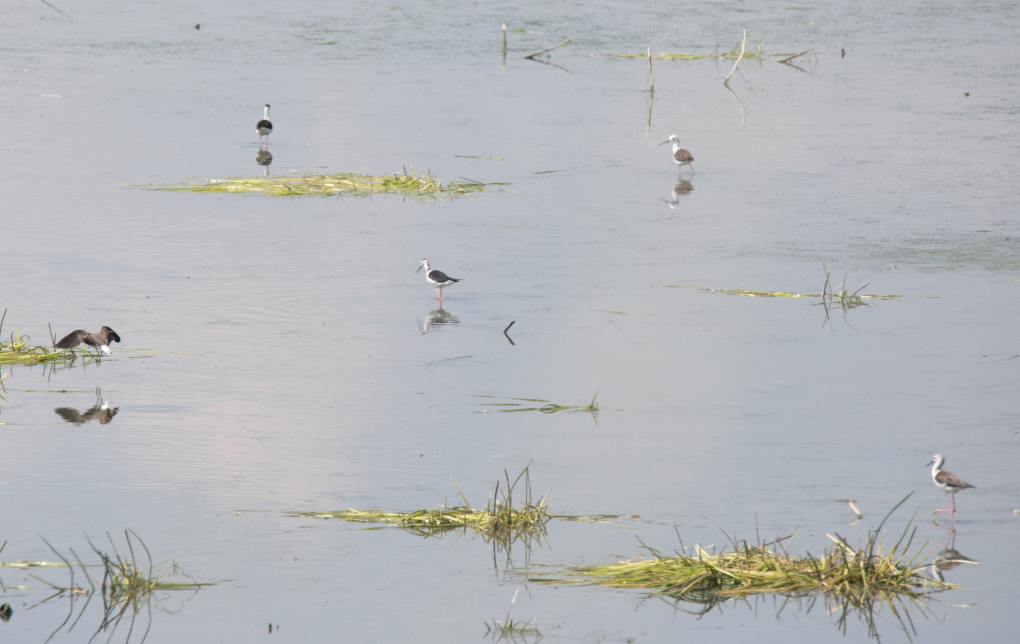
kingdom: Animalia
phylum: Chordata
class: Aves
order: Charadriiformes
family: Recurvirostridae
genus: Himantopus
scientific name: Himantopus himantopus
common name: Black-winged stilt
